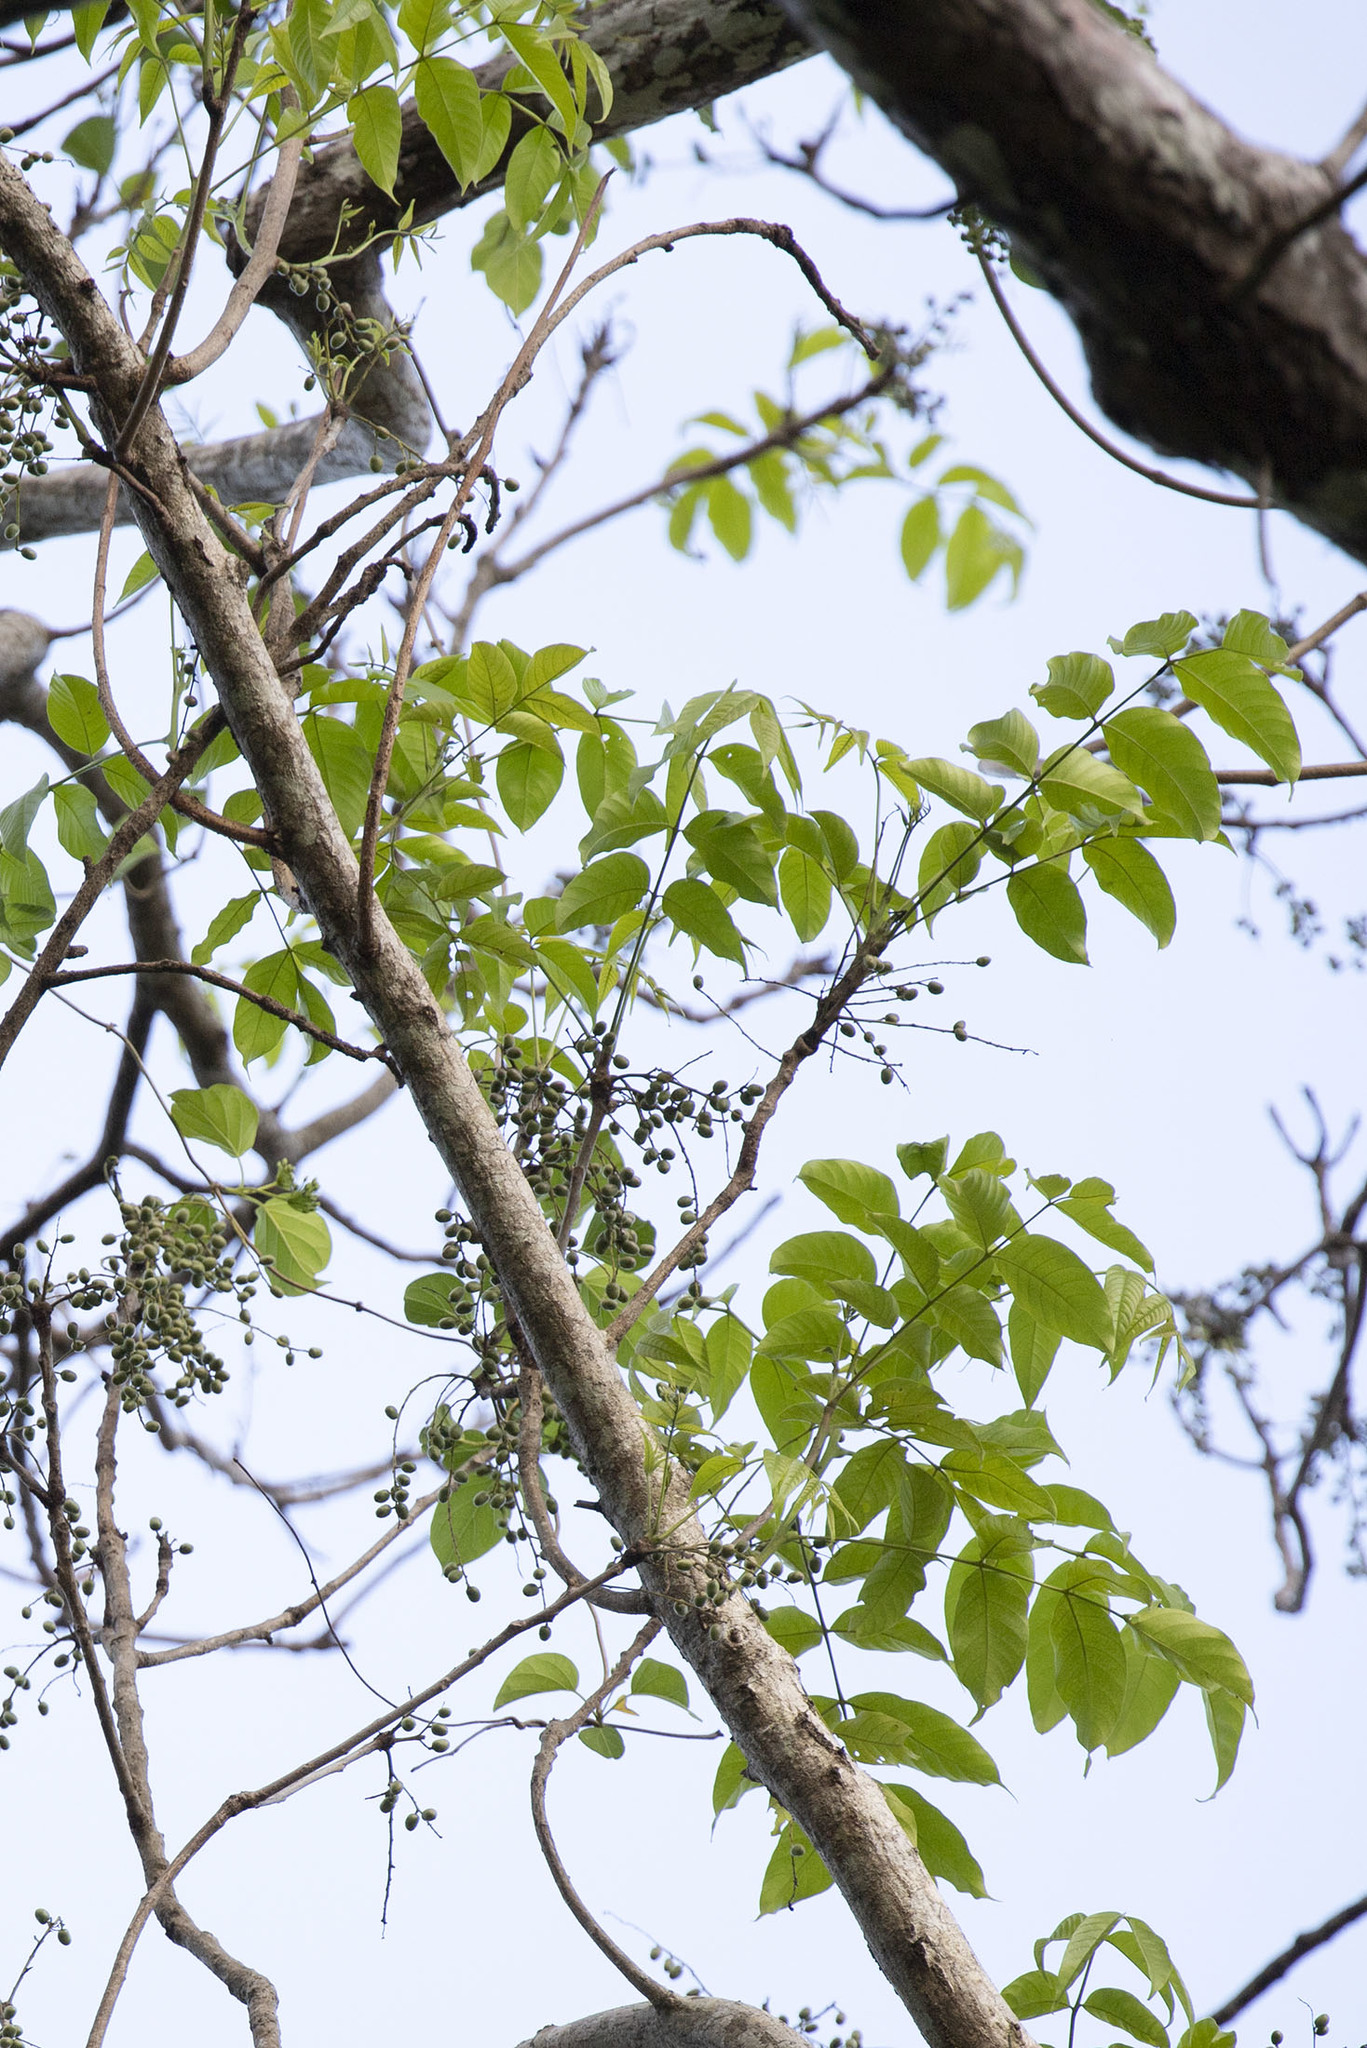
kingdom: Plantae
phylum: Tracheophyta
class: Magnoliopsida
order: Sapindales
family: Anacardiaceae
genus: Lannea
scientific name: Lannea coromandelica
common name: Indian ash tree
